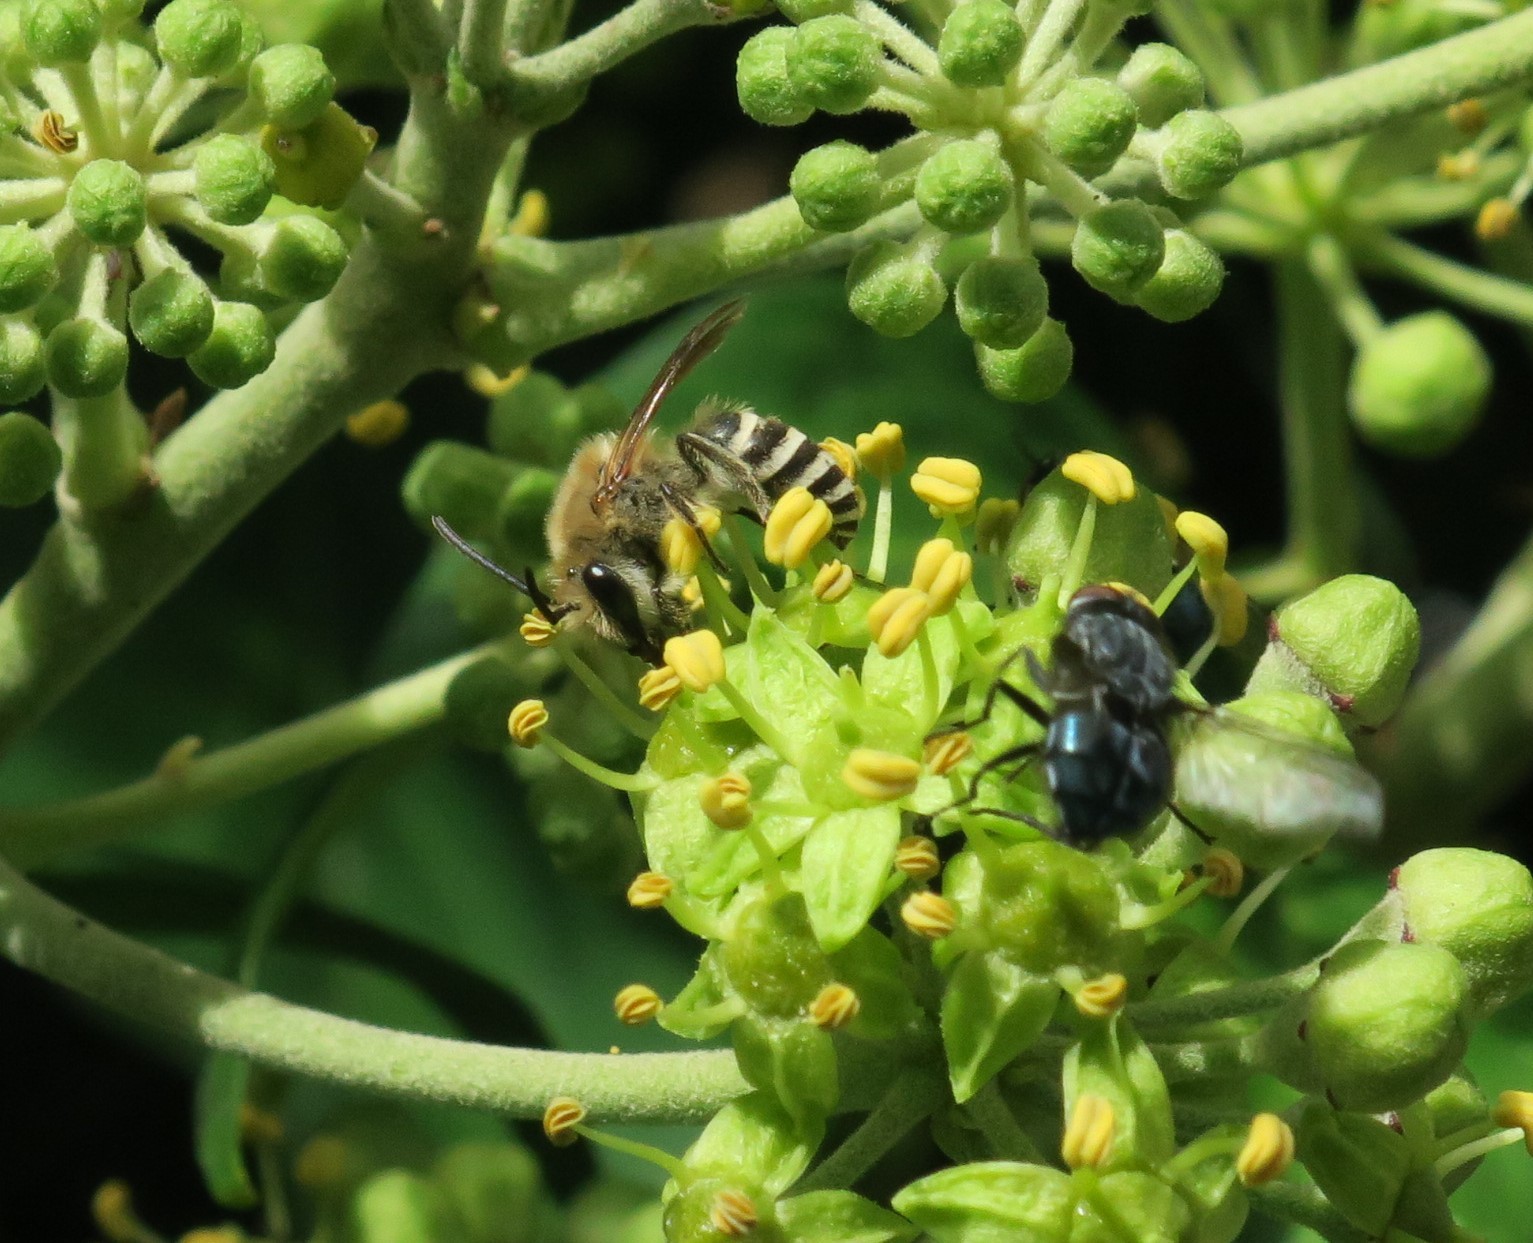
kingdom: Animalia
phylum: Arthropoda
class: Insecta
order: Hymenoptera
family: Colletidae
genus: Colletes
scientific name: Colletes hederae
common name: Ivy bee
